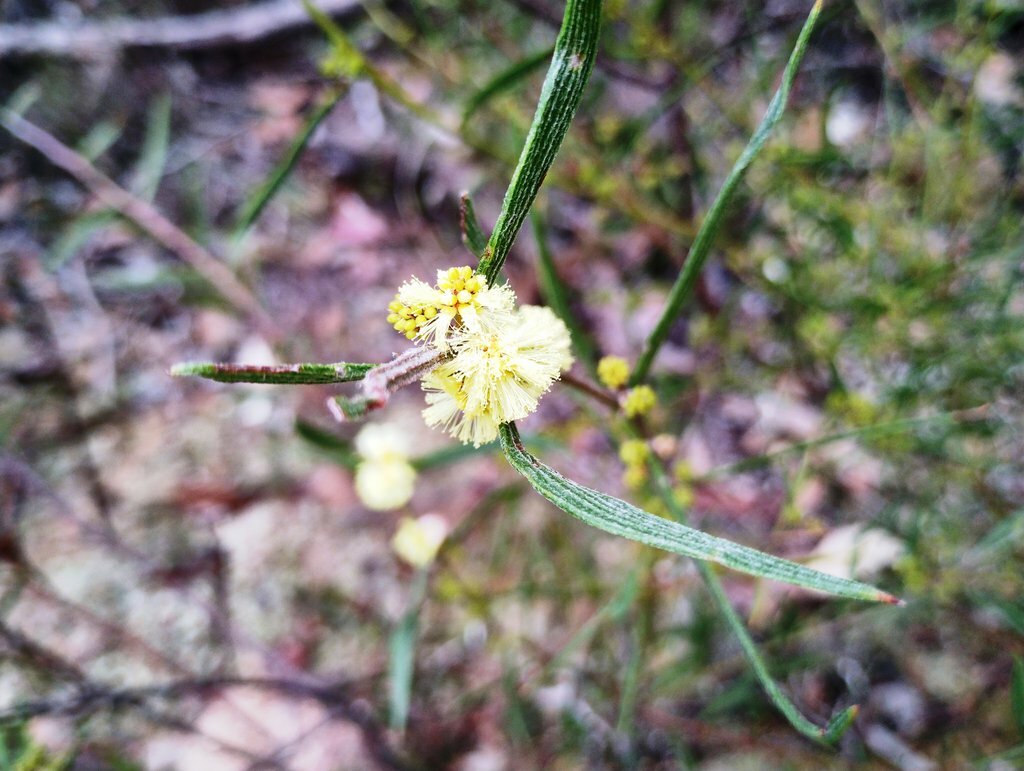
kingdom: Plantae
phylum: Tracheophyta
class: Magnoliopsida
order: Fabales
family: Fabaceae
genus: Acacia
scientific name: Acacia lanigera
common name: Hairy wattle
